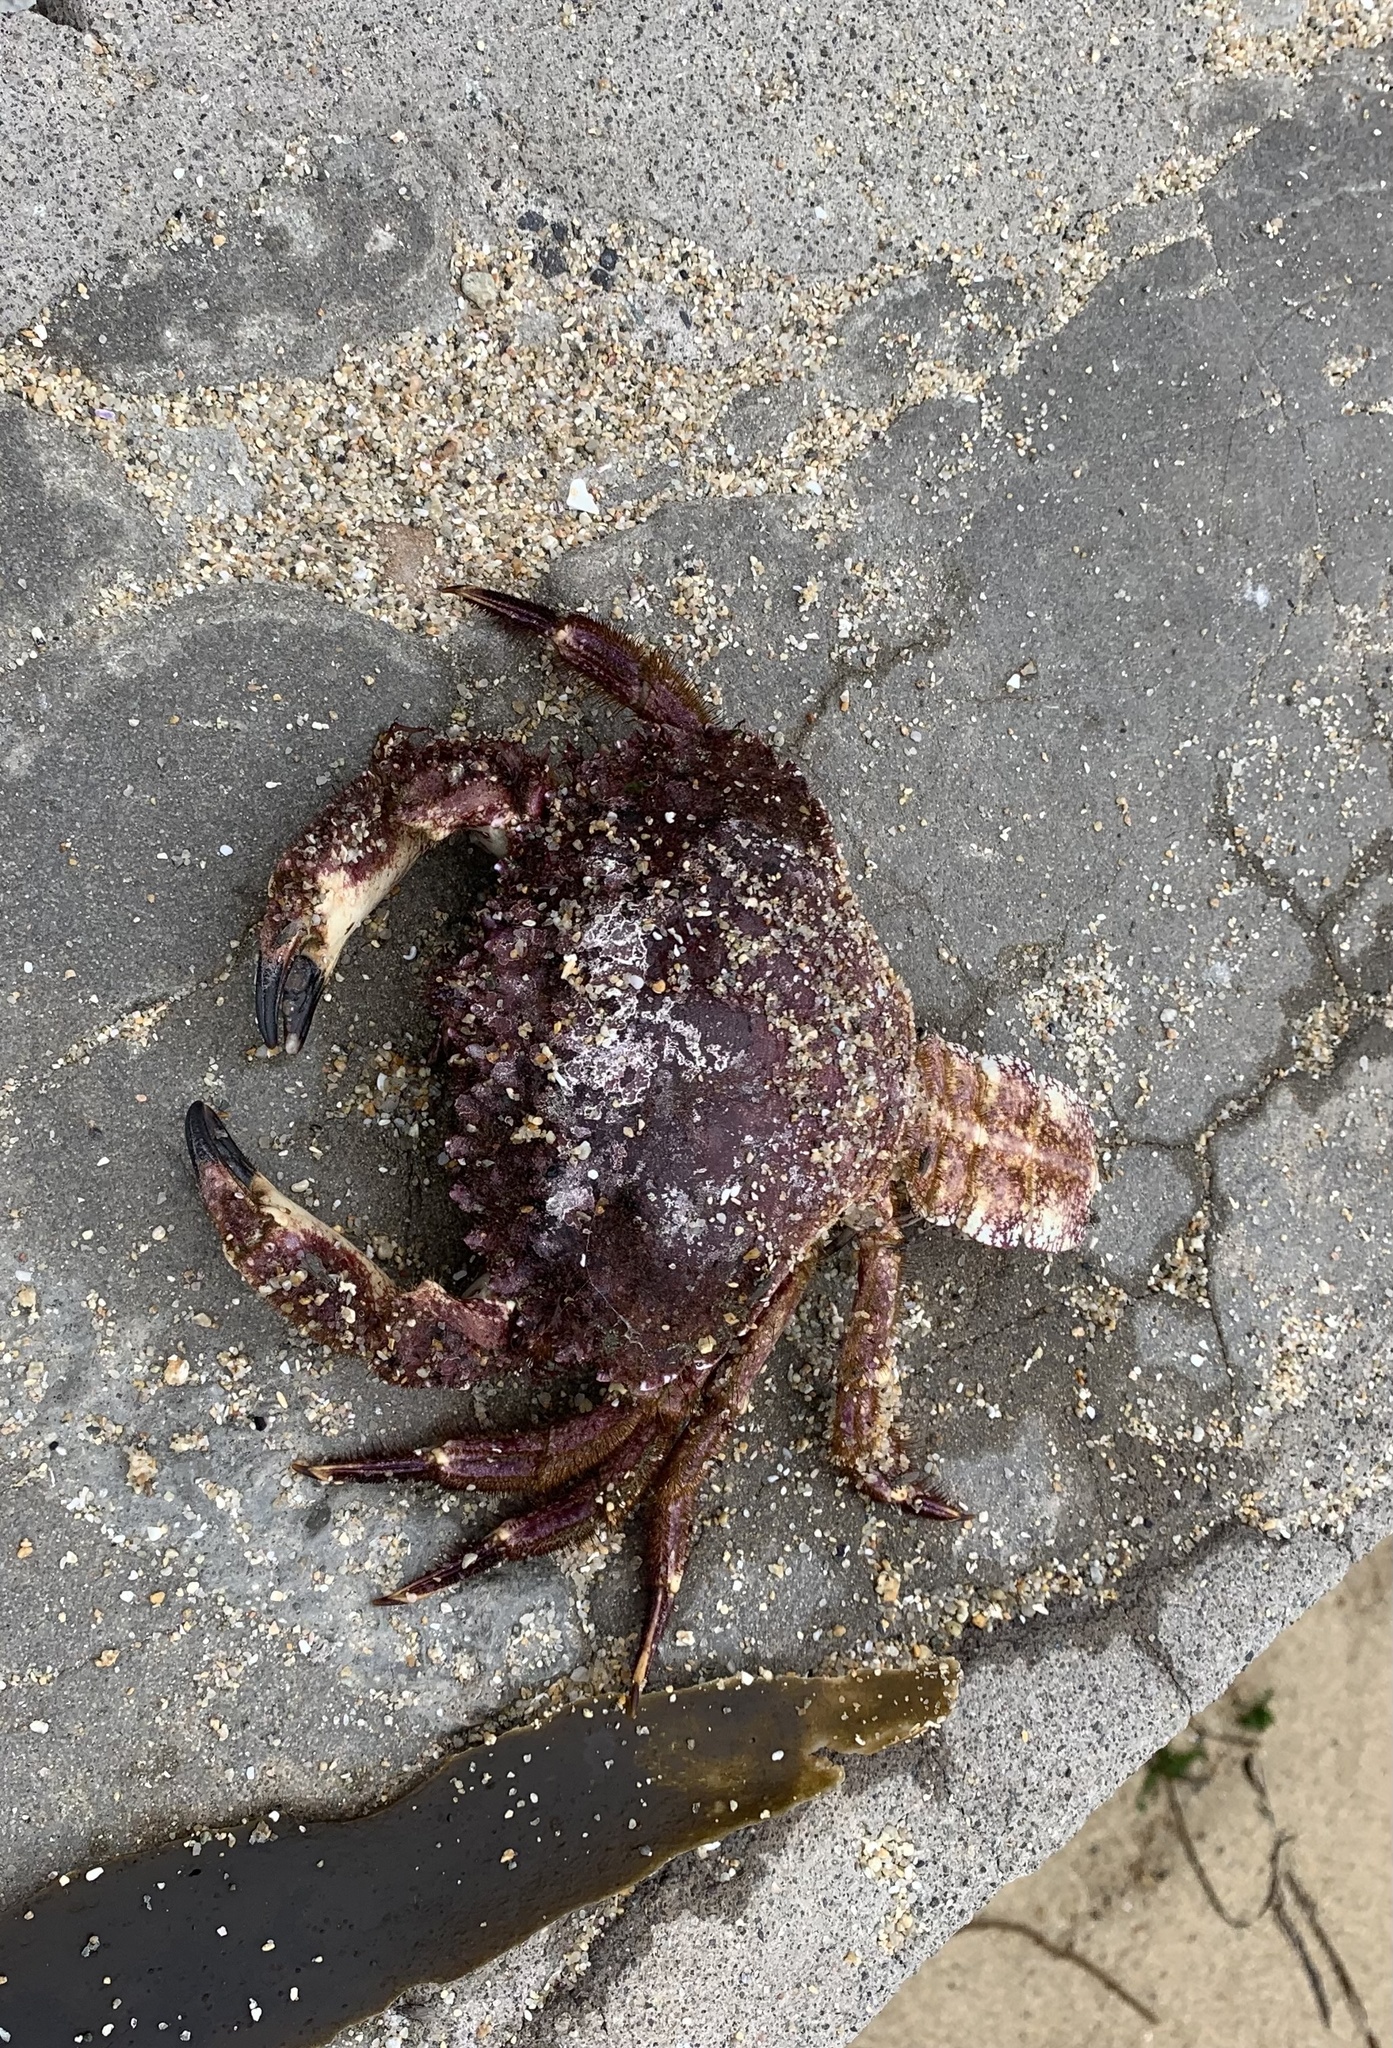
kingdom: Animalia
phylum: Arthropoda
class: Malacostraca
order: Decapoda
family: Cancridae
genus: Romaleon
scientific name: Romaleon setosum
